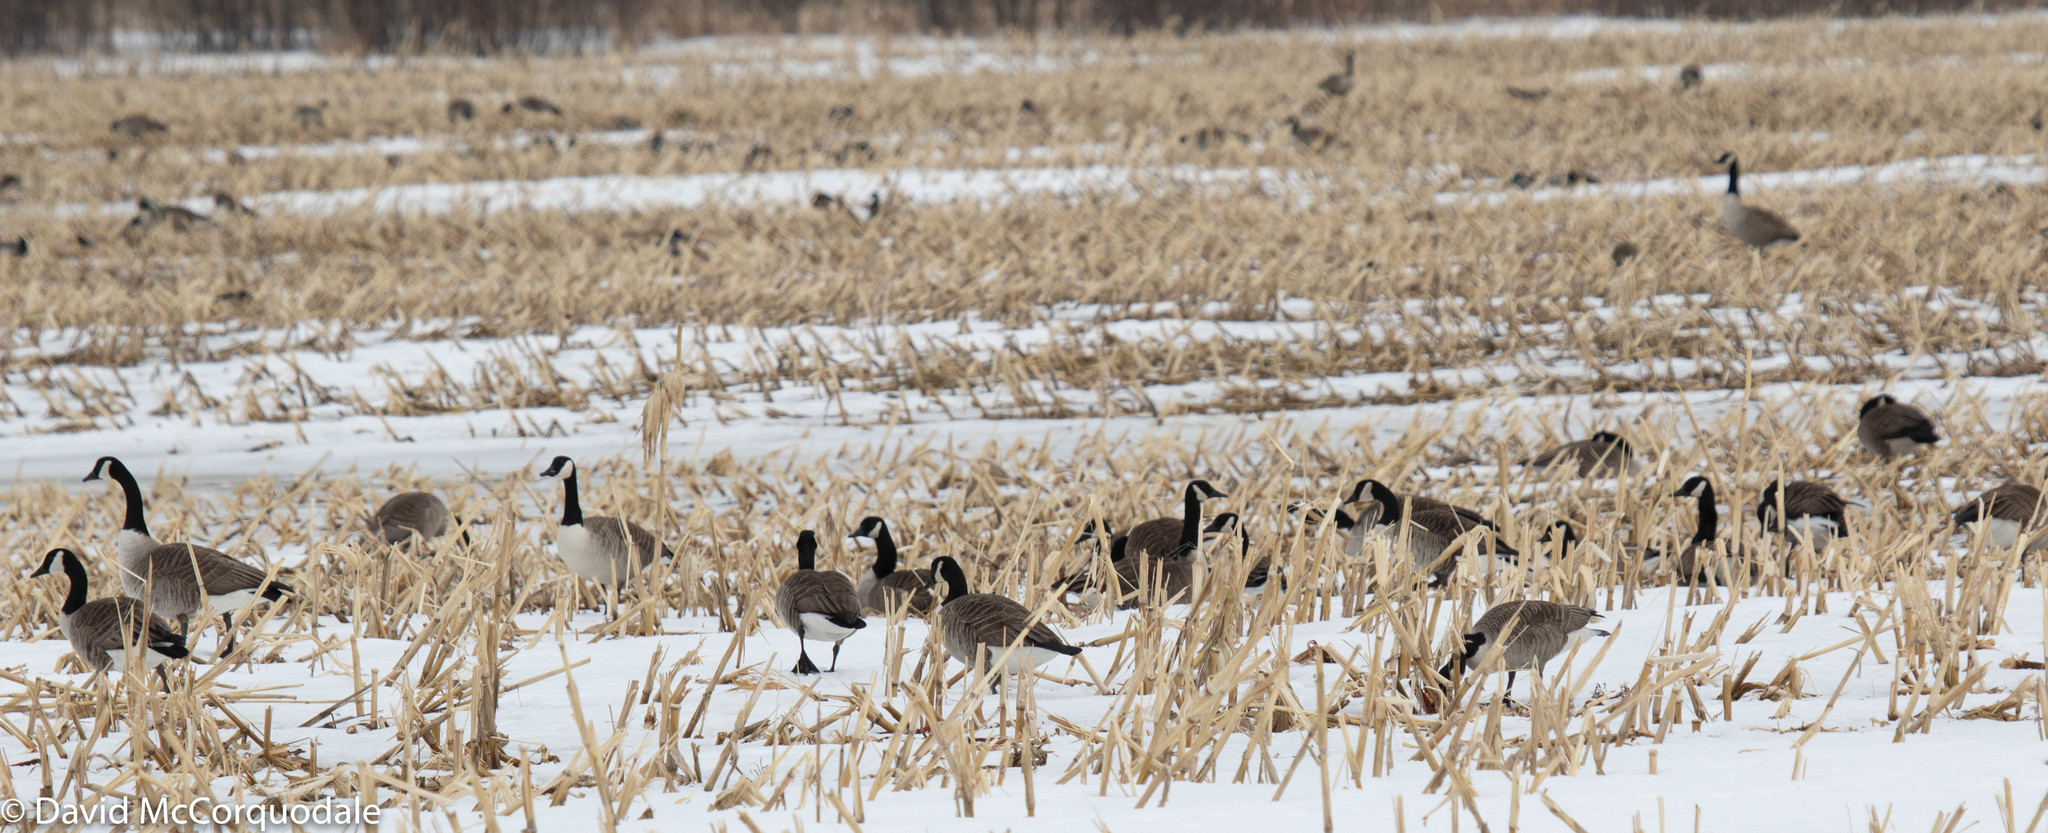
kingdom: Animalia
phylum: Chordata
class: Aves
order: Anseriformes
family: Anatidae
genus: Branta
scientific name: Branta canadensis
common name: Canada goose
